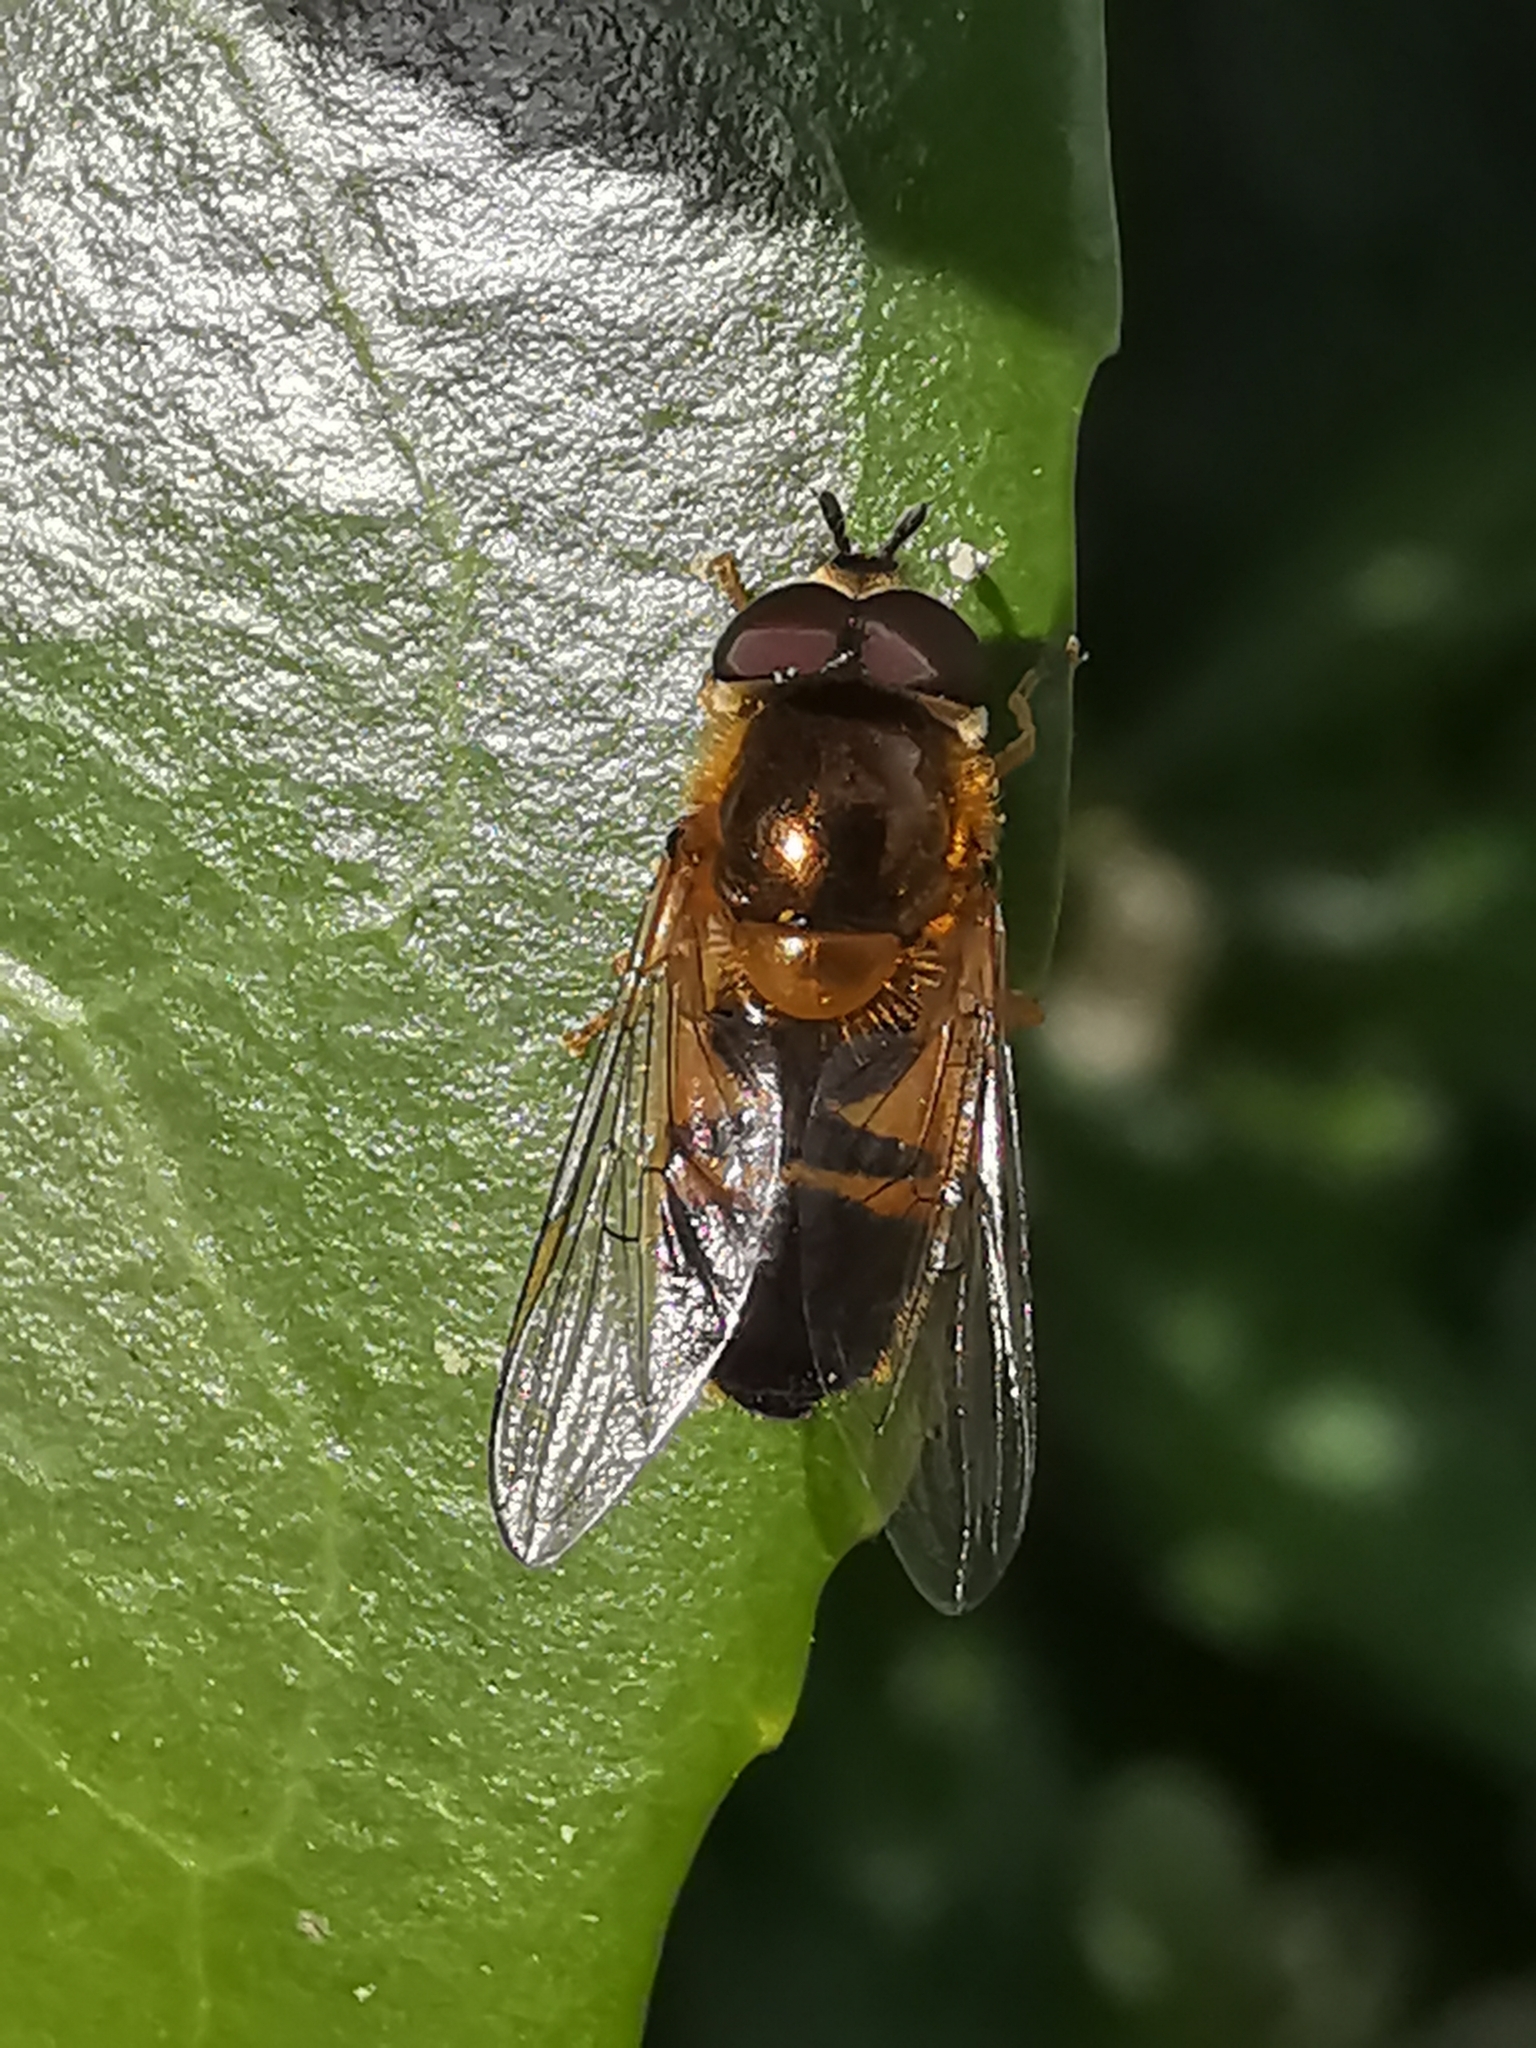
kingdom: Animalia
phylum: Arthropoda
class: Insecta
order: Diptera
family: Syrphidae
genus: Epistrophe
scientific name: Epistrophe eligans
